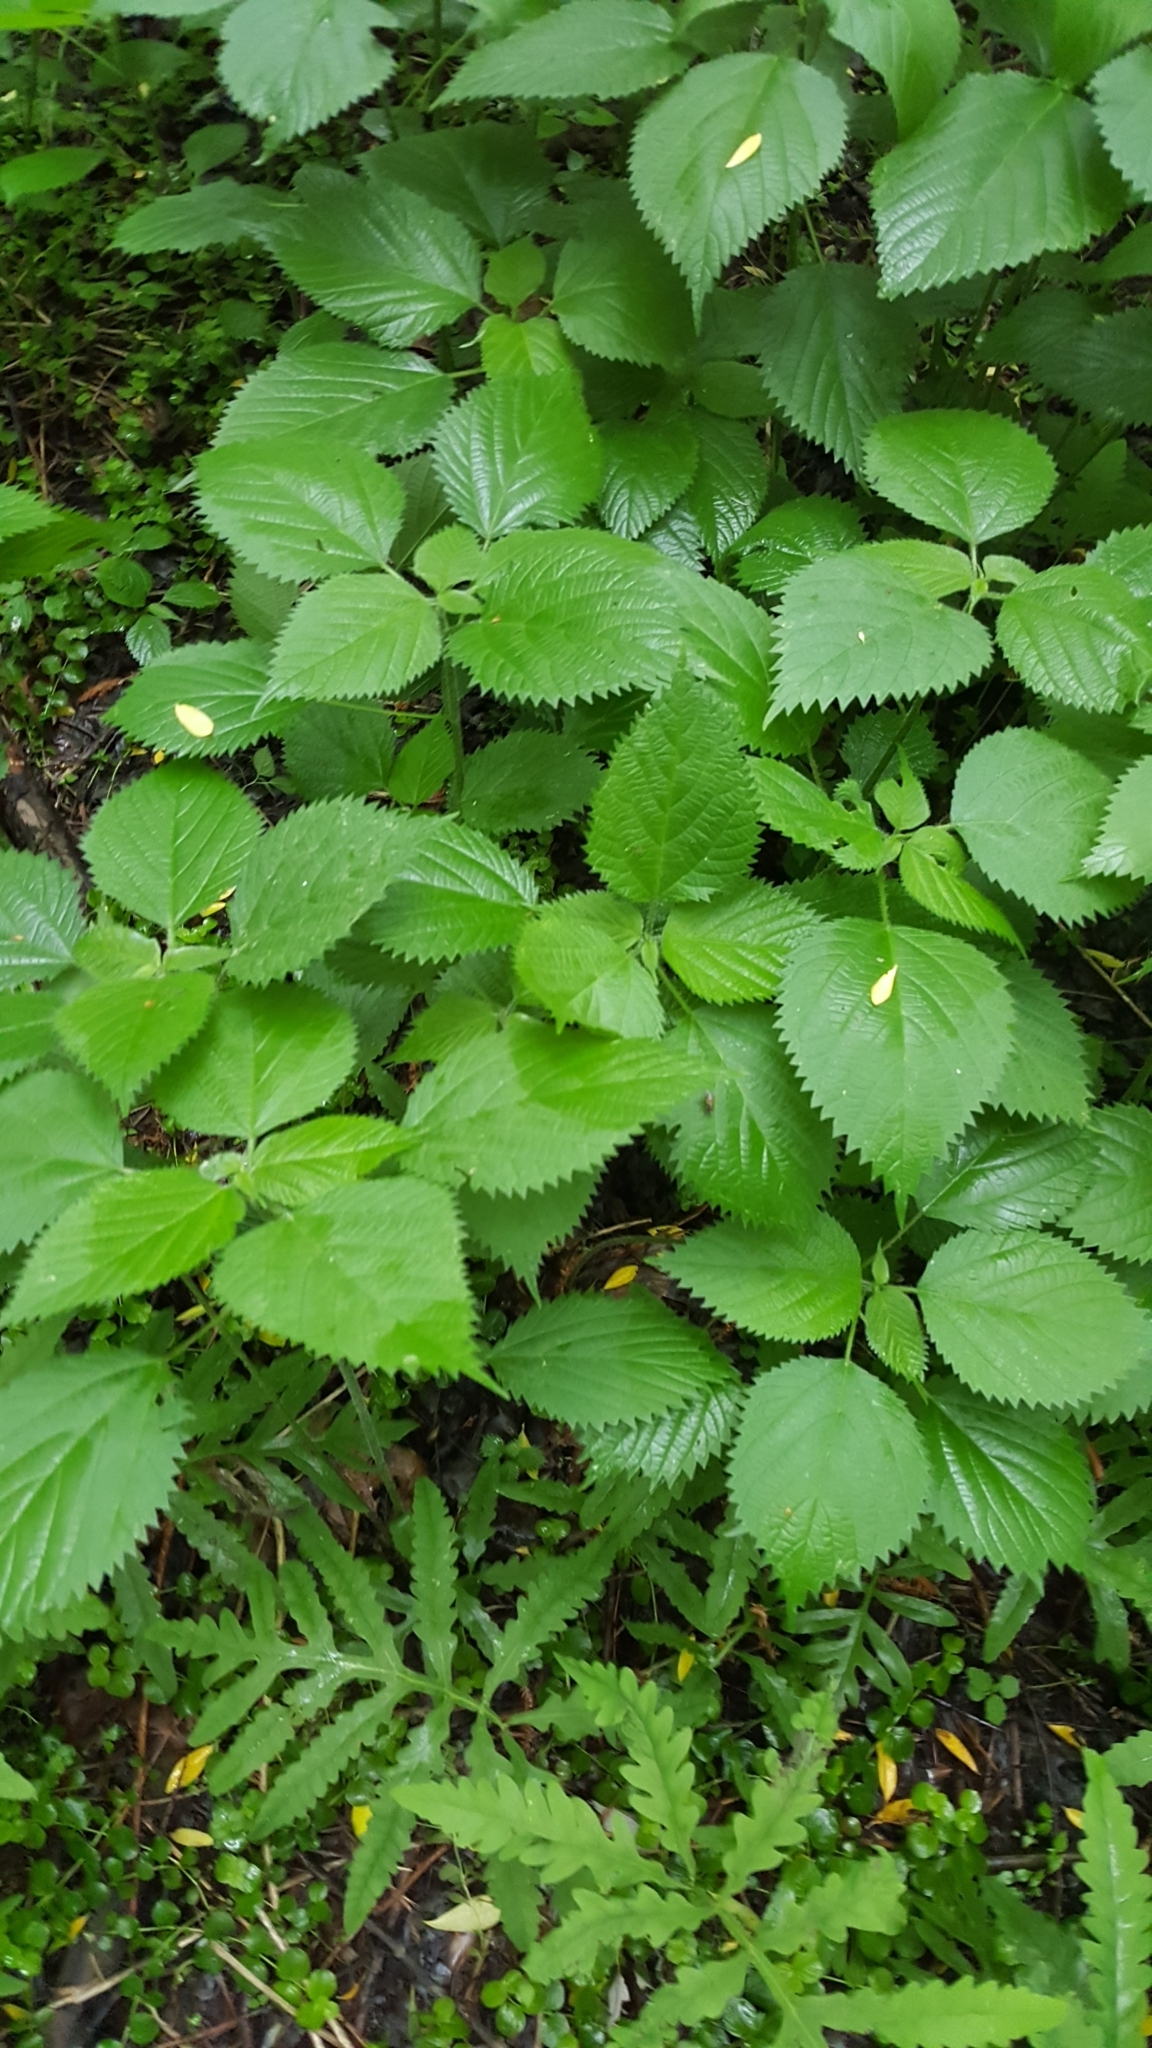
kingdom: Plantae
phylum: Tracheophyta
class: Magnoliopsida
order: Rosales
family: Urticaceae
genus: Laportea
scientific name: Laportea canadensis
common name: Canada nettle
